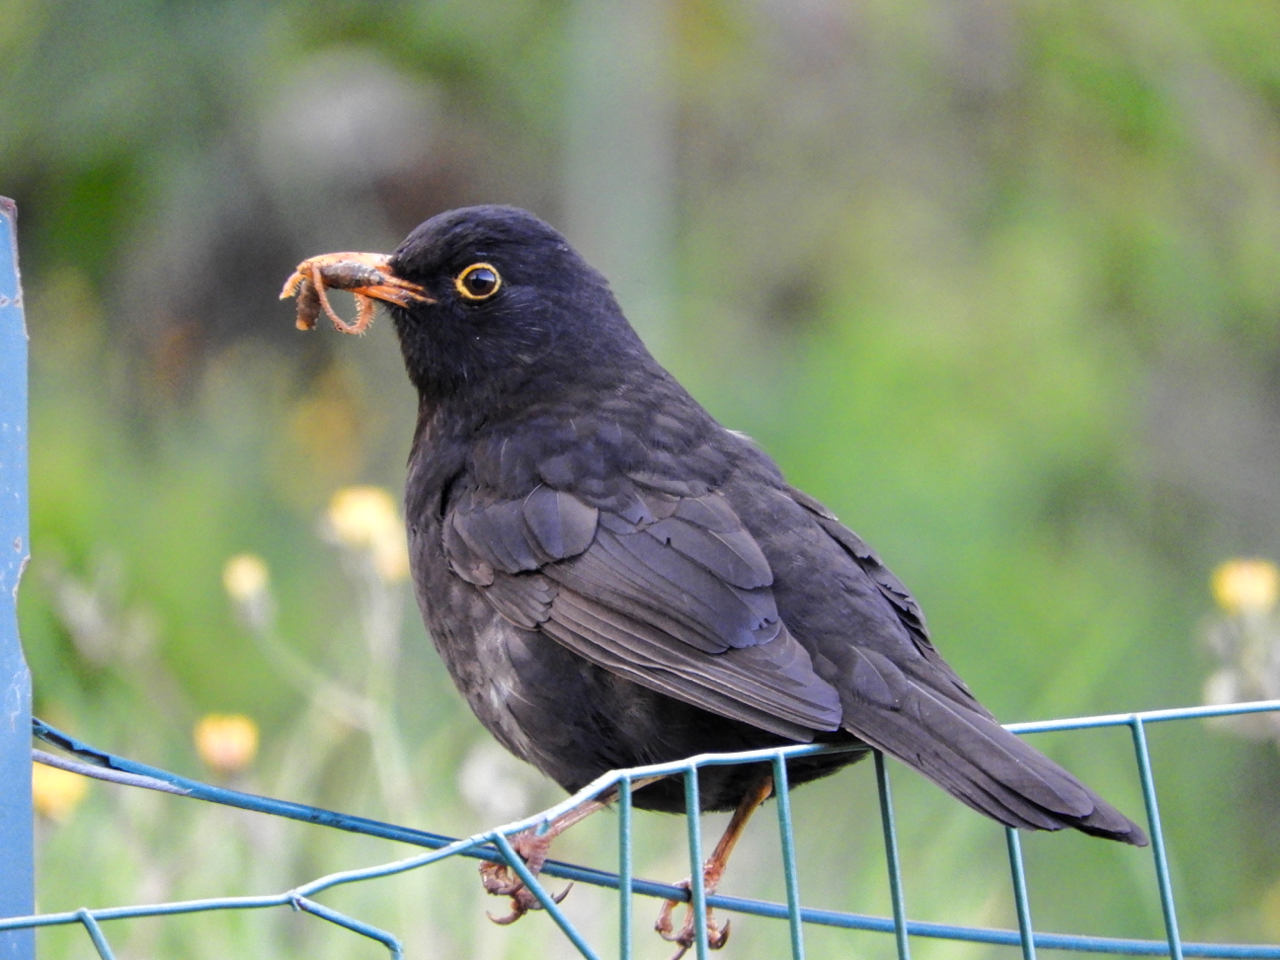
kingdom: Animalia
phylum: Chordata
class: Aves
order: Passeriformes
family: Turdidae
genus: Turdus
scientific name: Turdus merula
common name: Common blackbird
